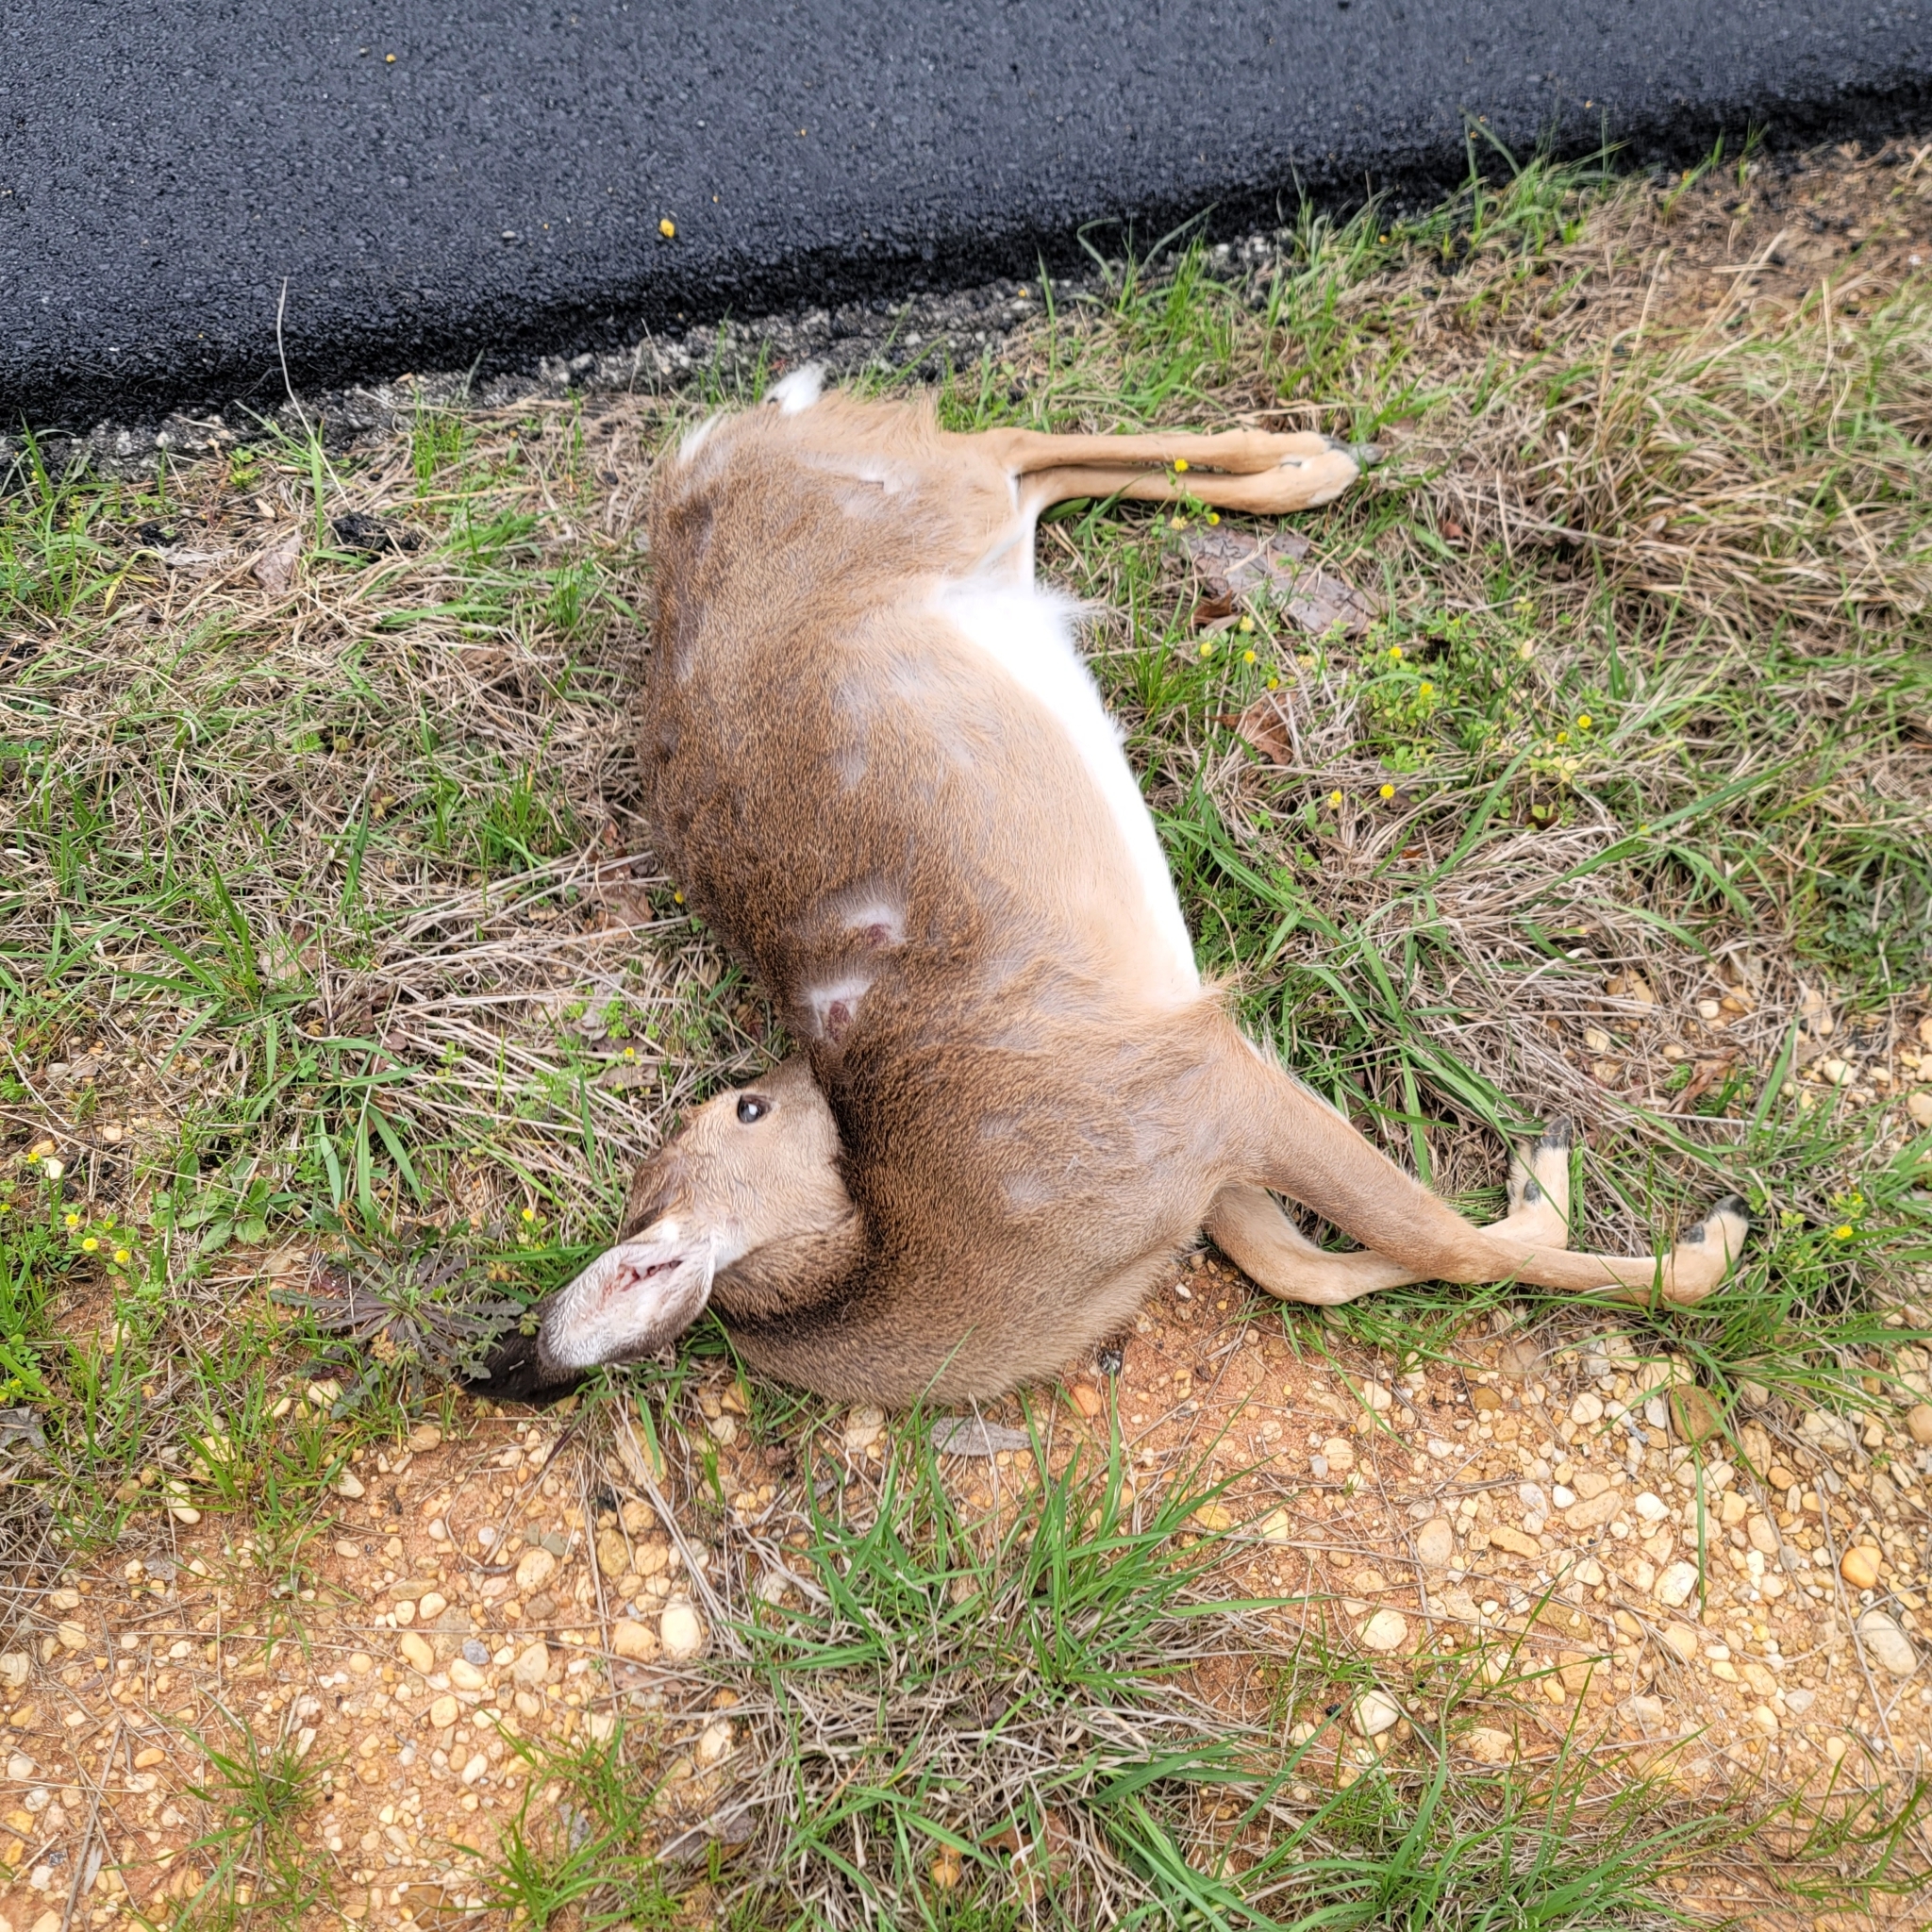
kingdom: Animalia
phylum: Chordata
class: Mammalia
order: Artiodactyla
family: Cervidae
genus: Odocoileus
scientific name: Odocoileus virginianus
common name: White-tailed deer
